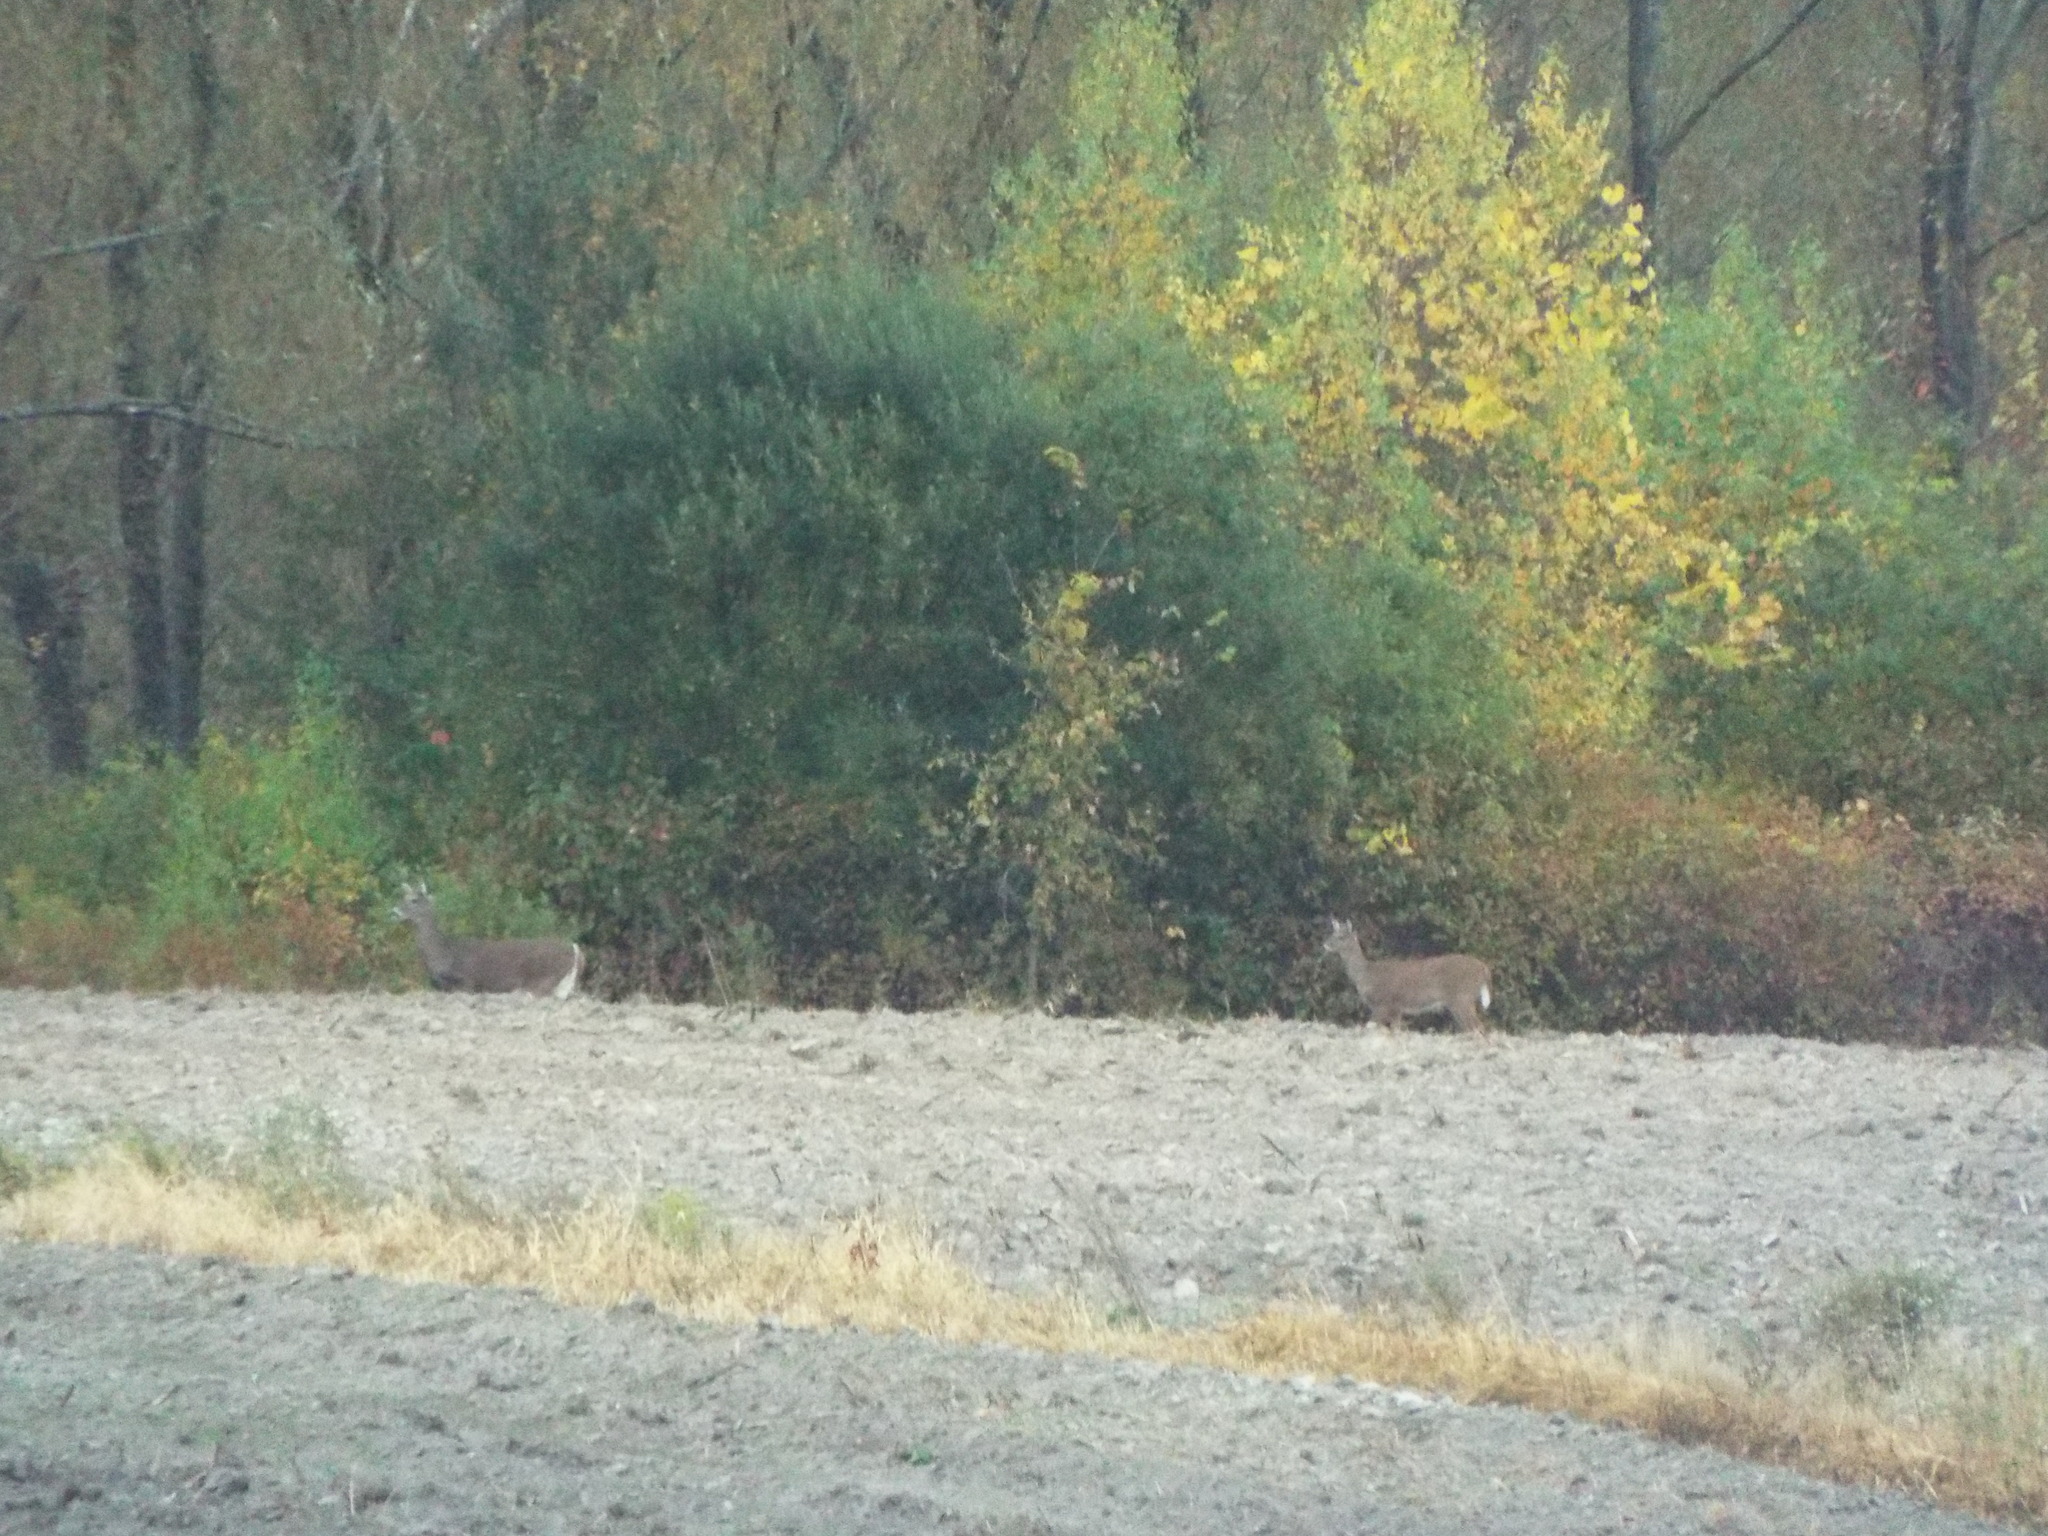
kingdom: Animalia
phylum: Chordata
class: Mammalia
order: Artiodactyla
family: Cervidae
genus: Odocoileus
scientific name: Odocoileus virginianus
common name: White-tailed deer
